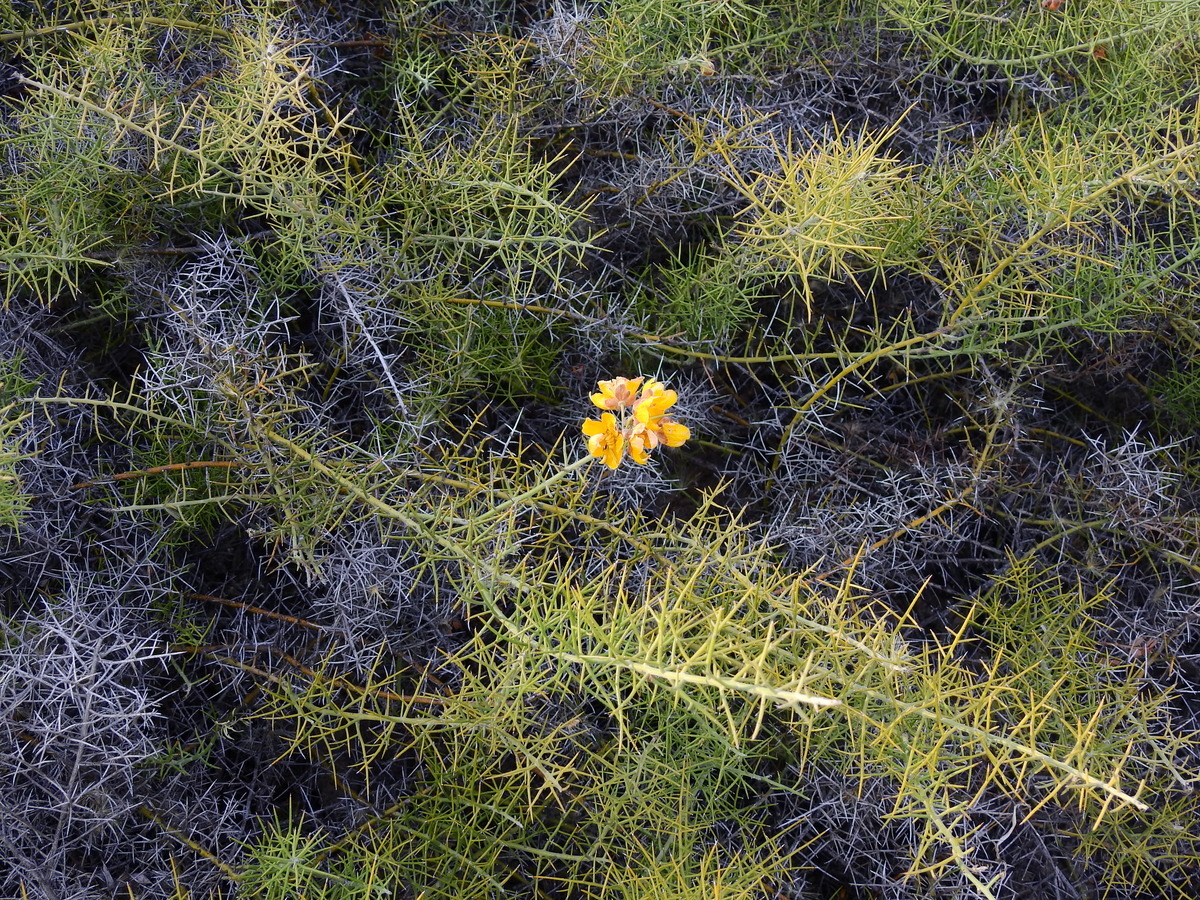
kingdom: Plantae
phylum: Tracheophyta
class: Magnoliopsida
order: Fabales
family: Fabaceae
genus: Senna
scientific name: Senna acanthoclada
